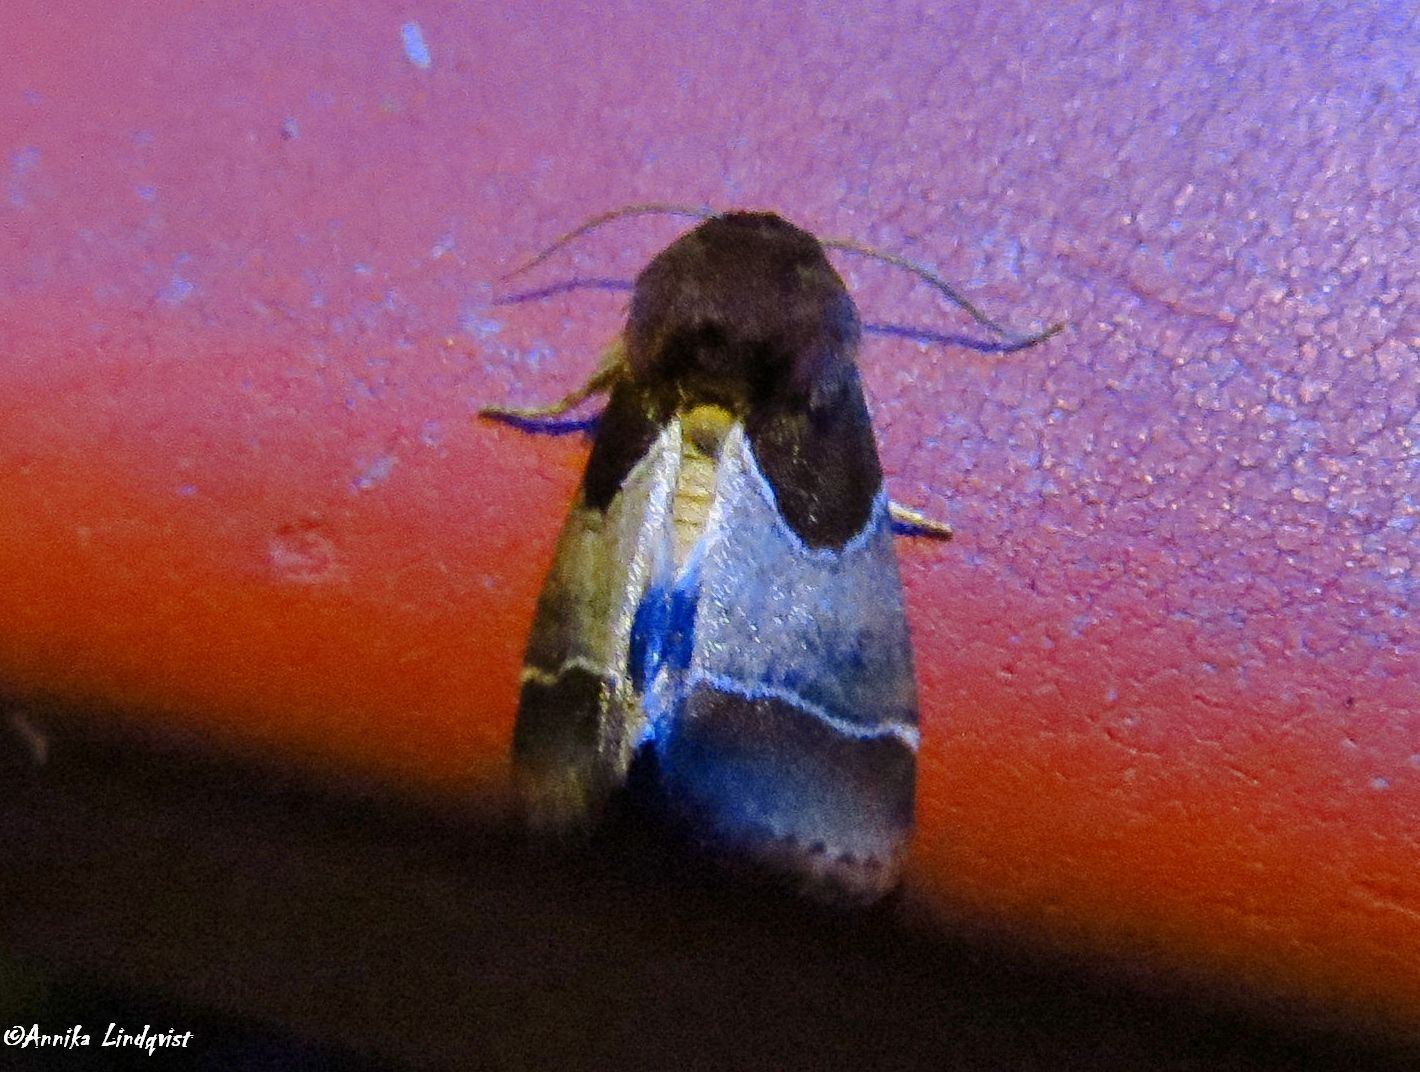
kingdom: Animalia
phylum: Arthropoda
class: Insecta
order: Lepidoptera
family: Noctuidae
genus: Schinia
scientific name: Schinia arcigera
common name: Arcigera flower moth
